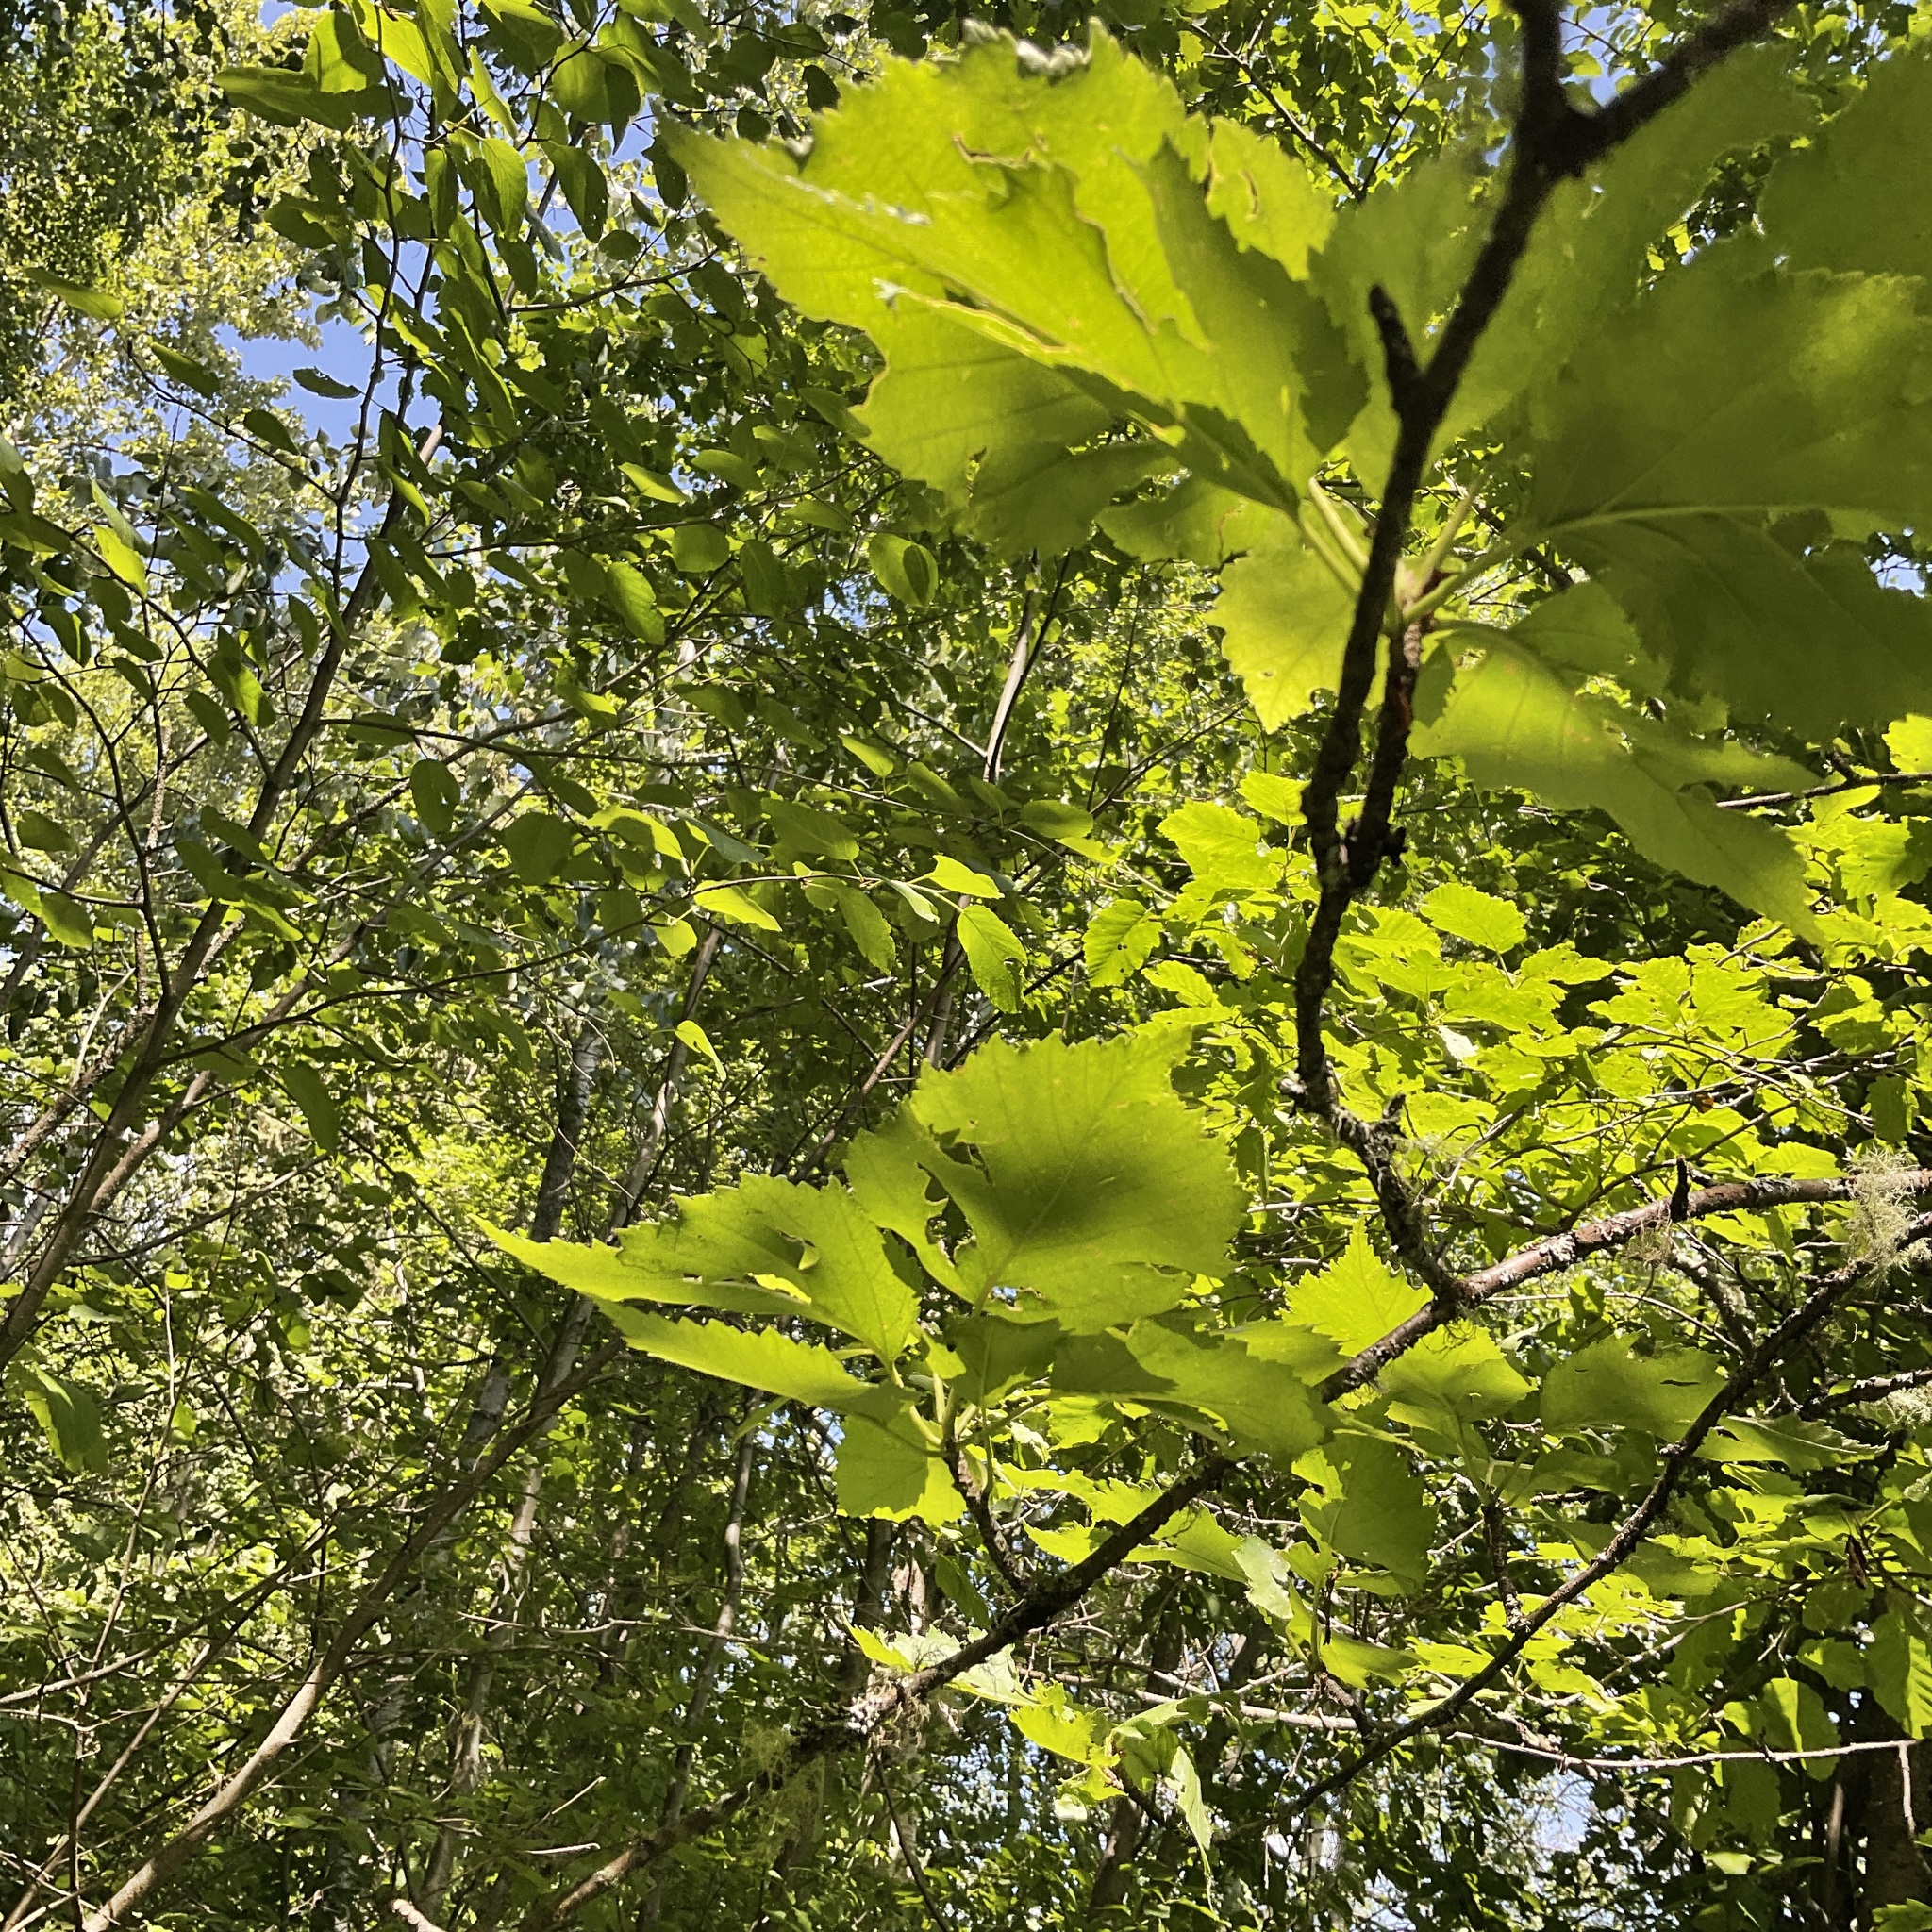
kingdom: Plantae
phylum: Tracheophyta
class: Magnoliopsida
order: Fagales
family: Betulaceae
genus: Betula
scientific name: Betula papyrifera
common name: Paper birch
